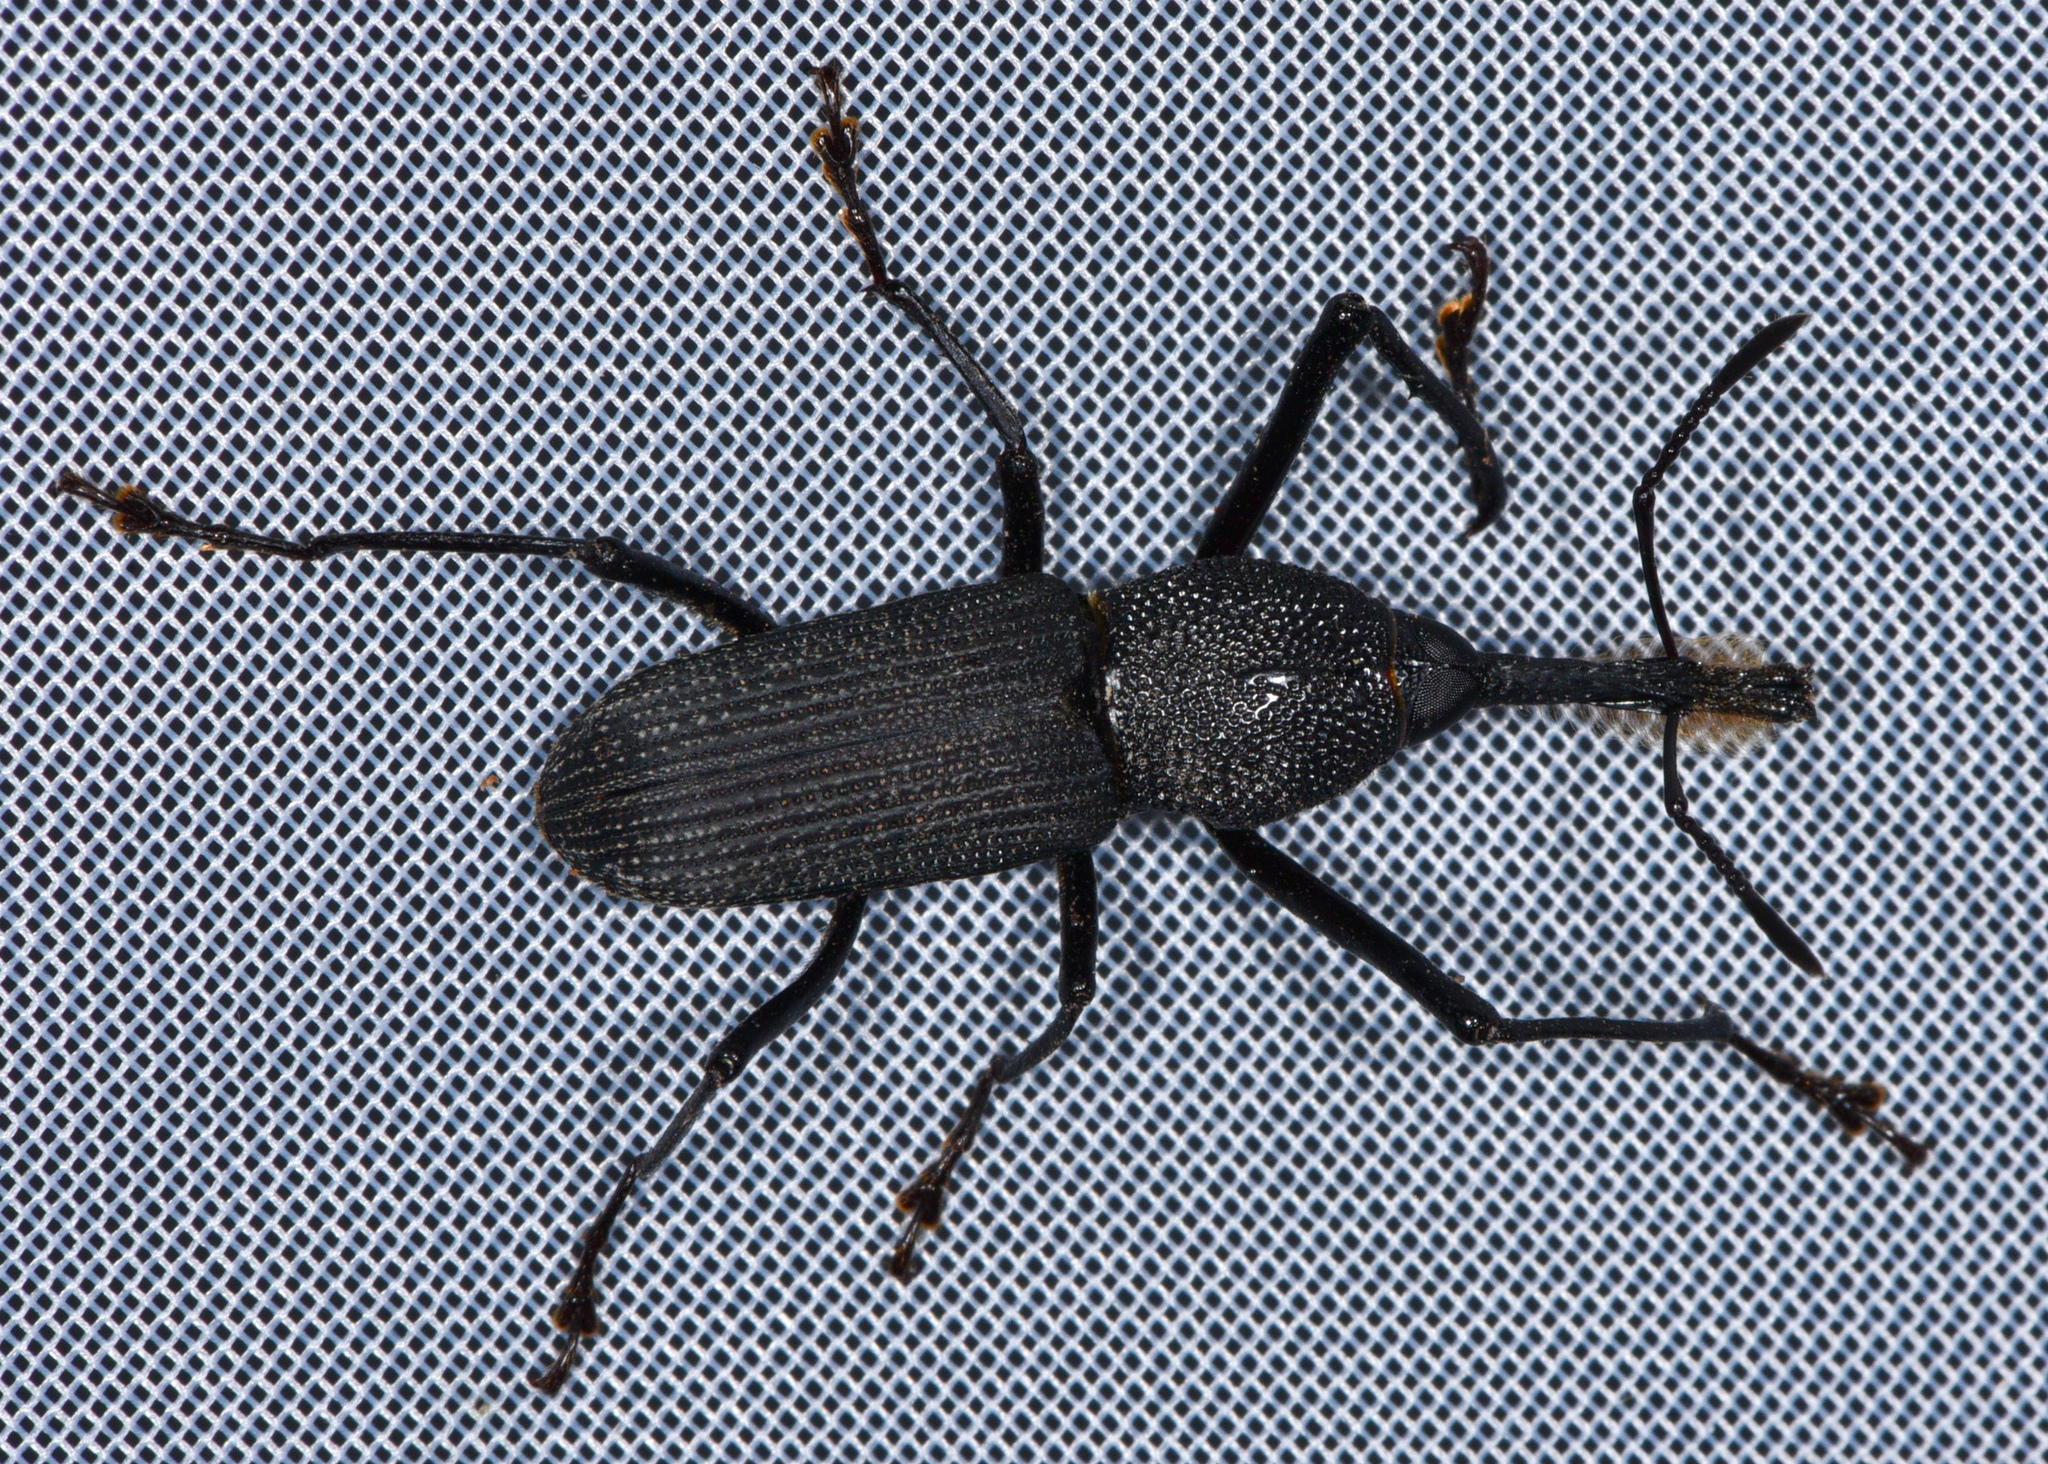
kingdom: Animalia
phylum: Arthropoda
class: Insecta
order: Coleoptera
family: Dryophthoridae
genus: Rhinostomus
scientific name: Rhinostomus barbirostris
